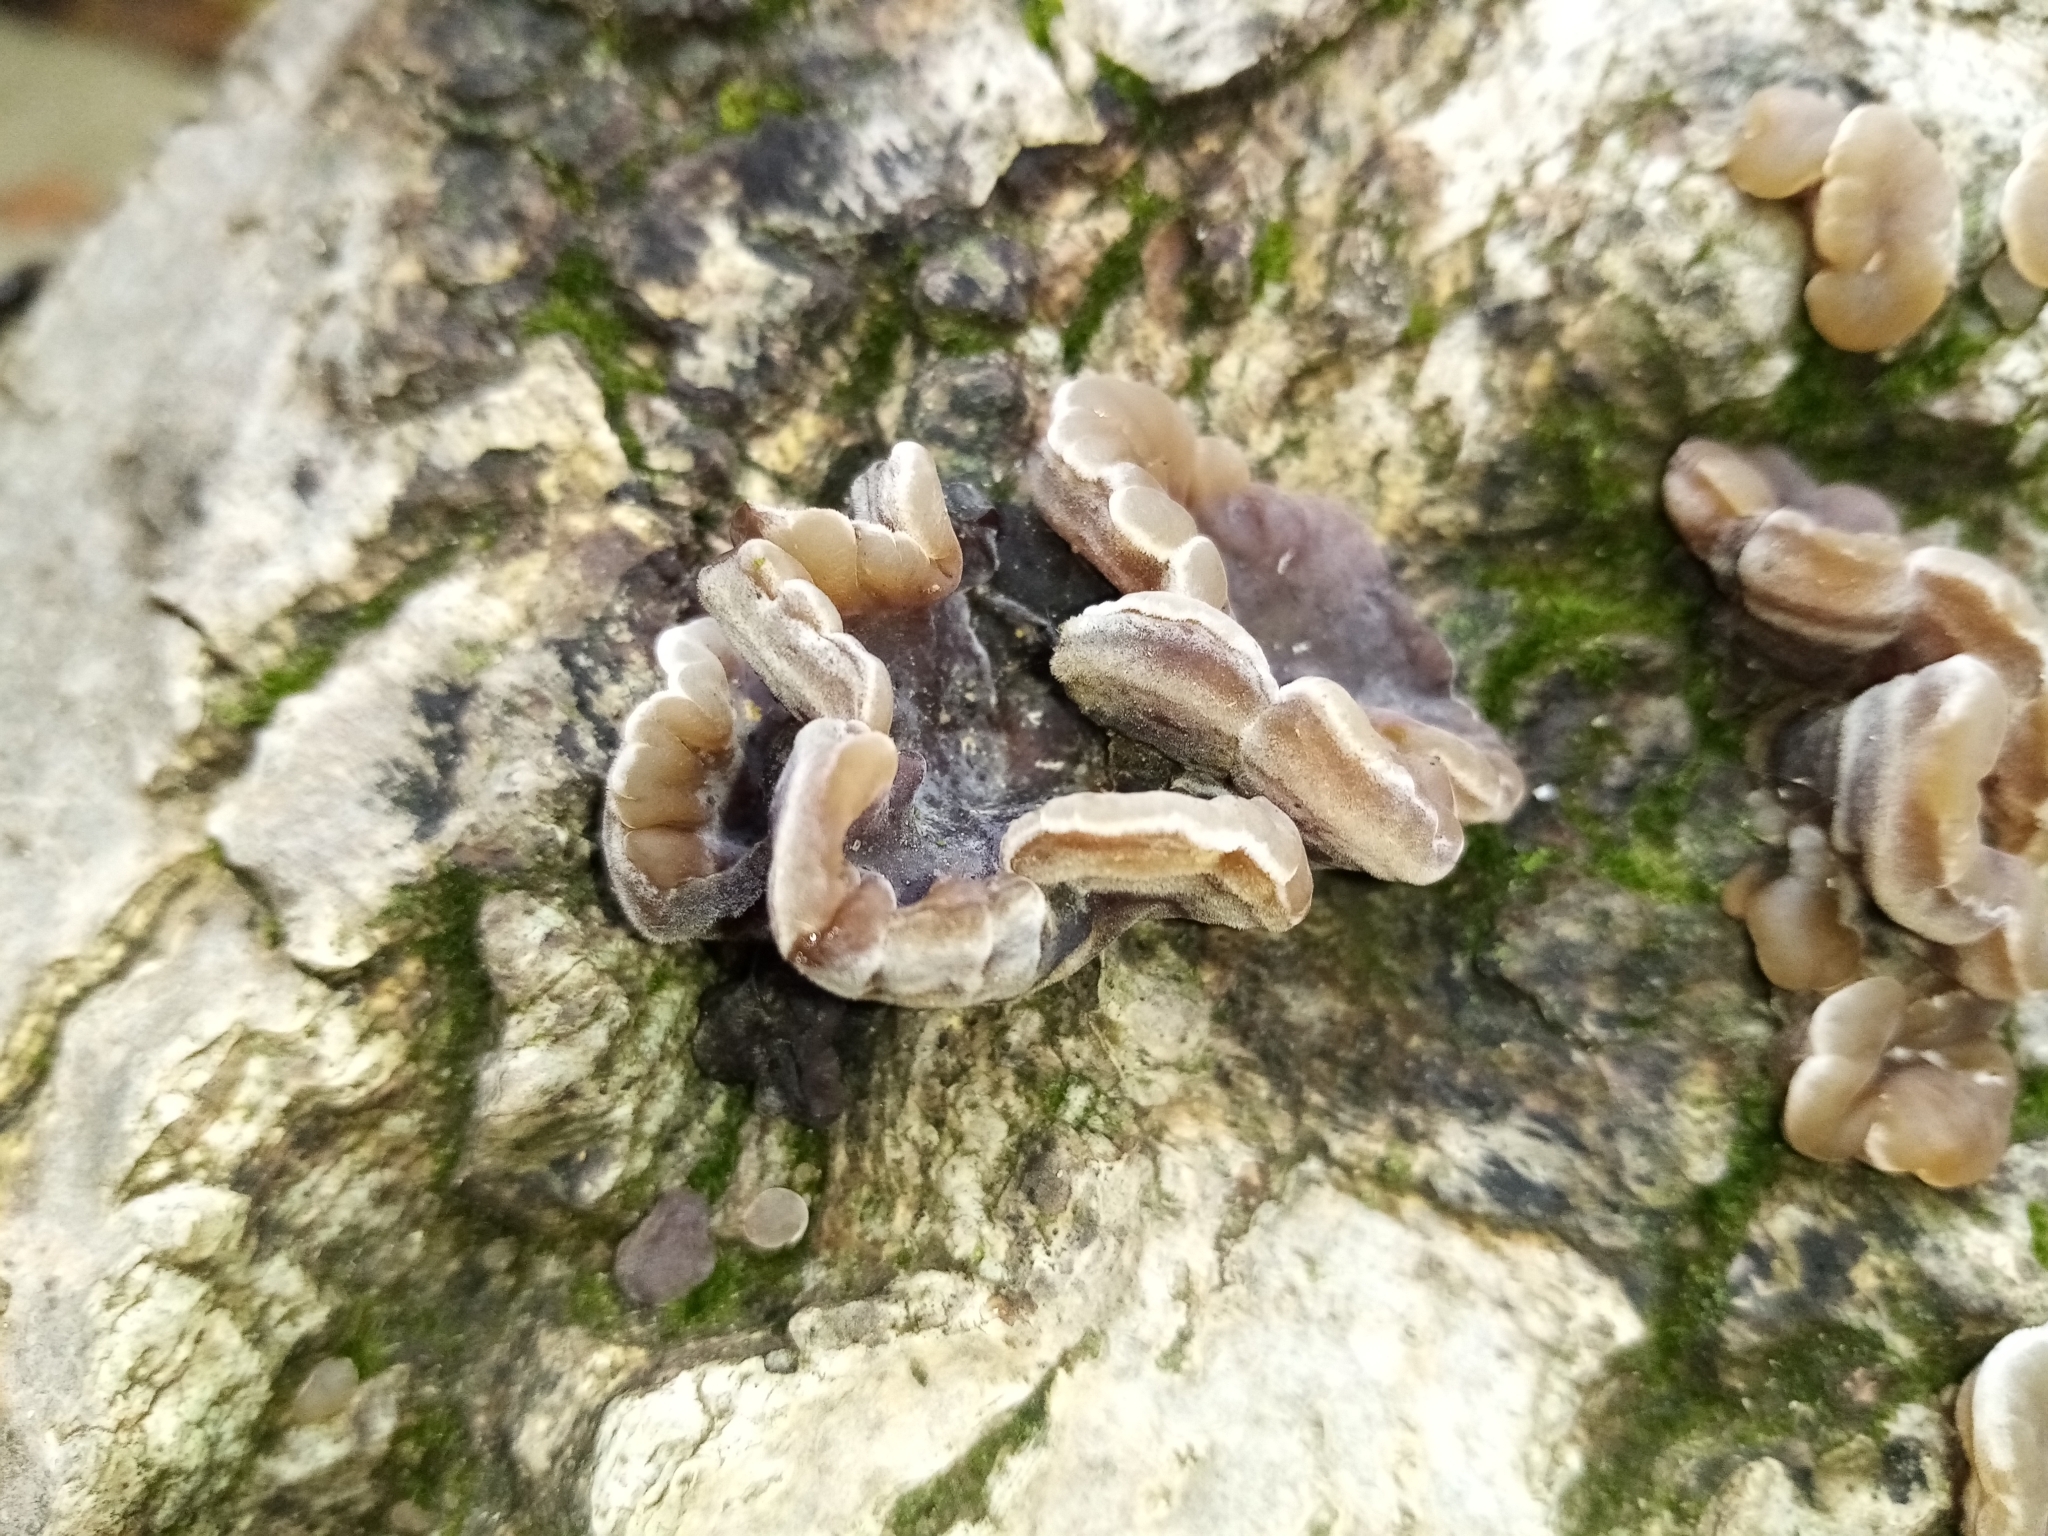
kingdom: Fungi
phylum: Basidiomycota
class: Agaricomycetes
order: Auriculariales
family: Auriculariaceae
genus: Auricularia
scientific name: Auricularia mesenterica
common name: Tripe fungus
